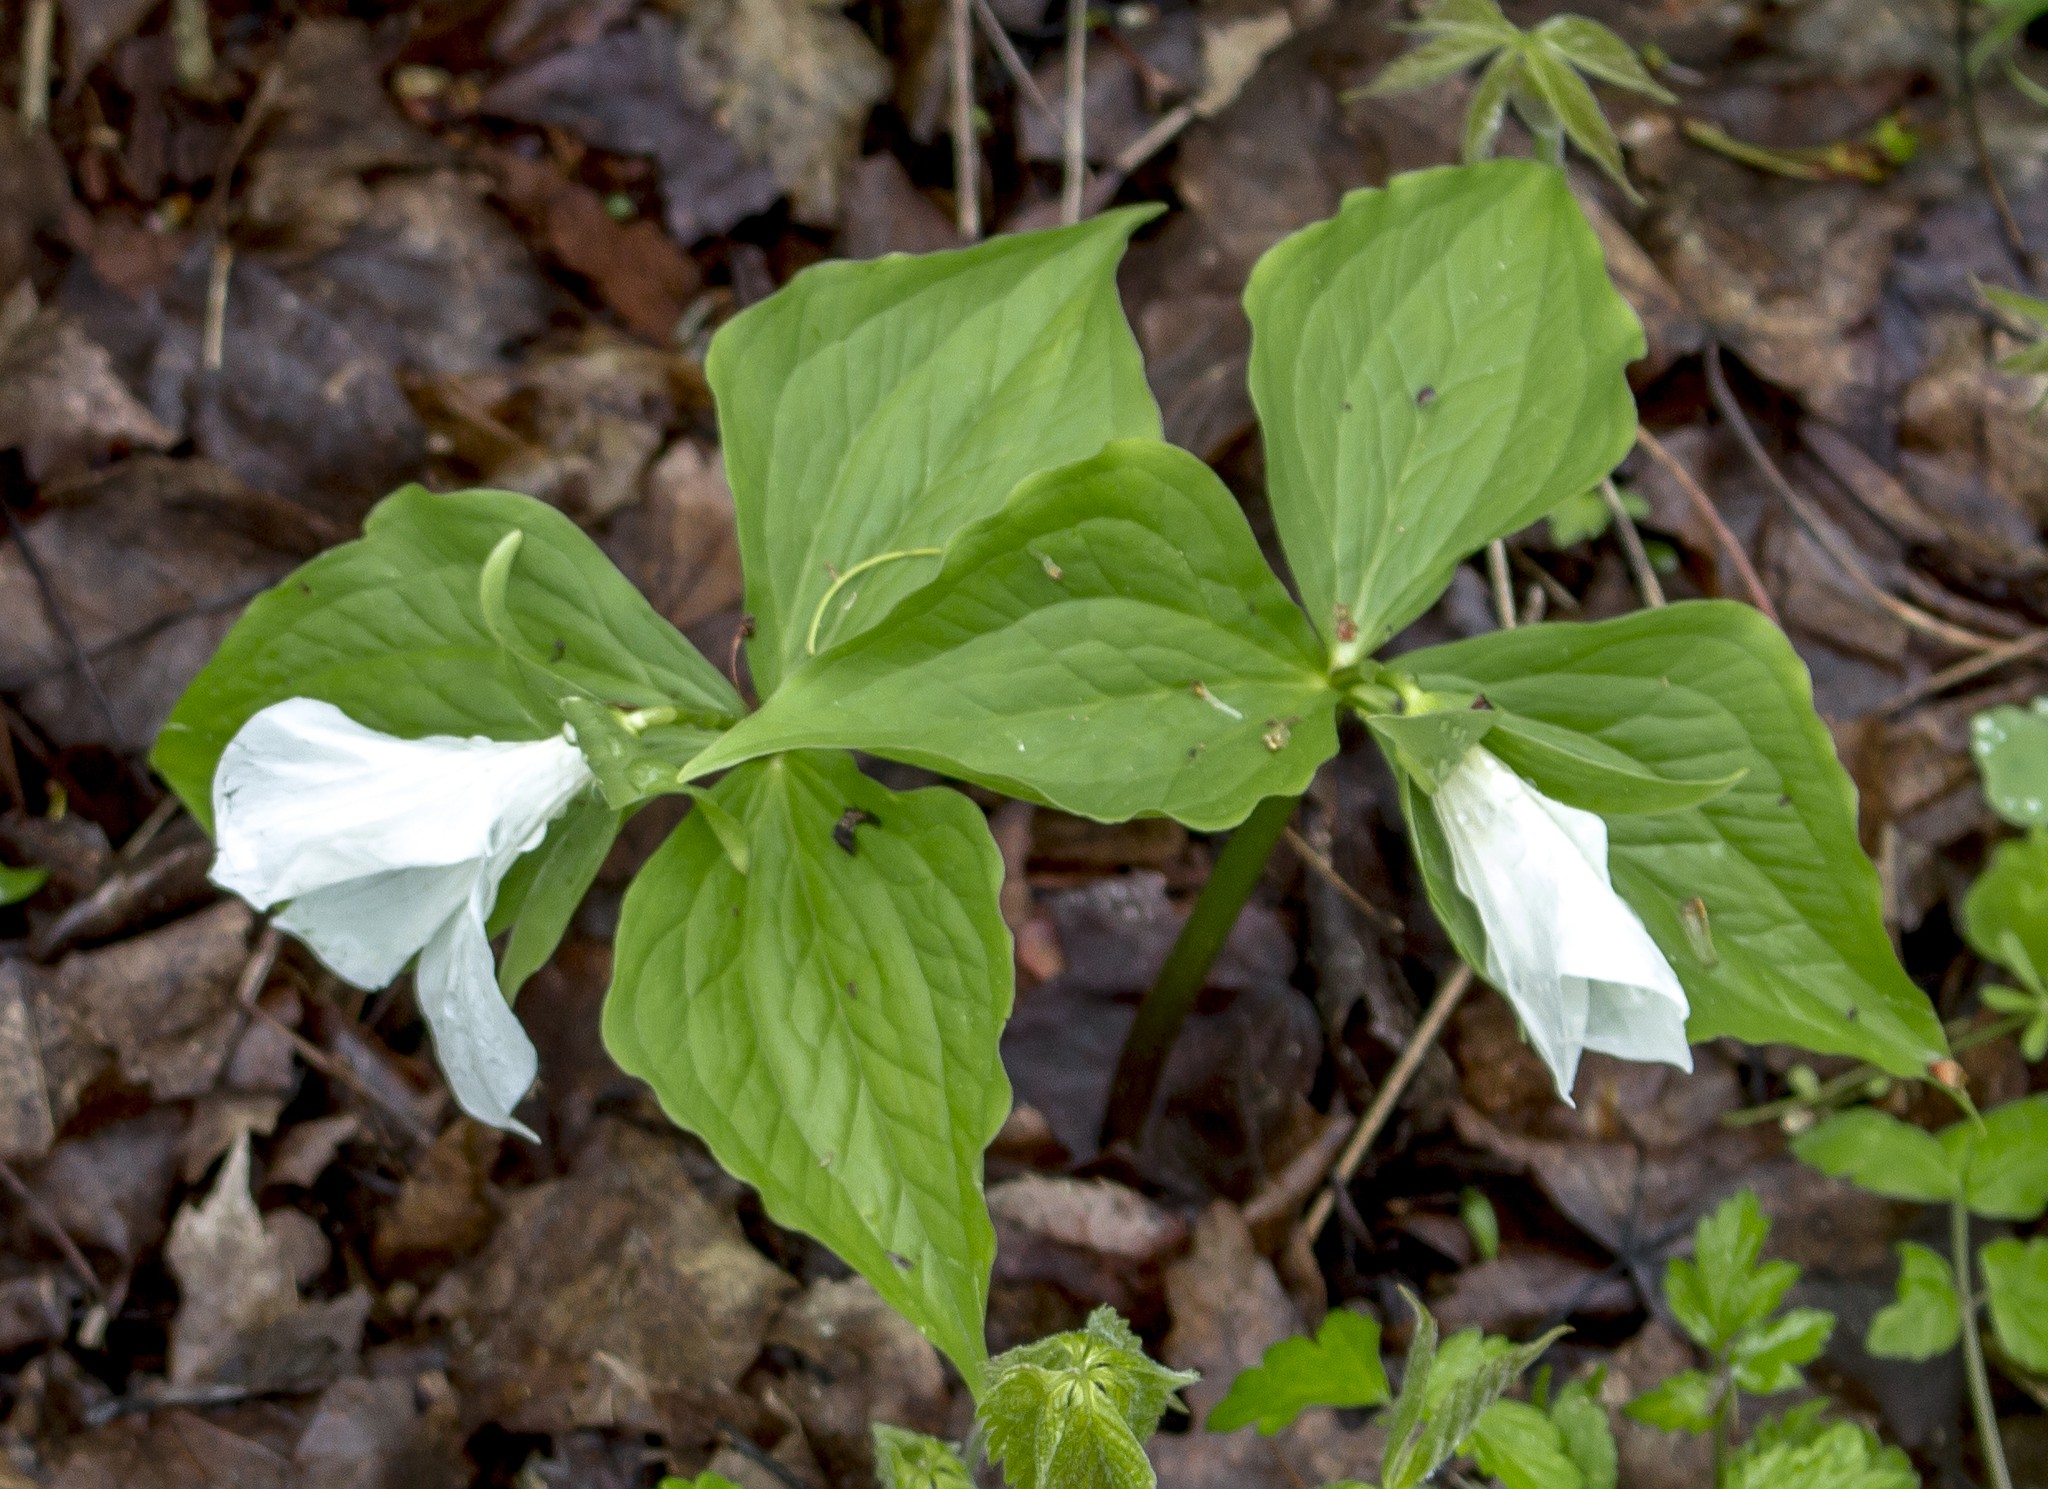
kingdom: Plantae
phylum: Tracheophyta
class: Liliopsida
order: Liliales
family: Melanthiaceae
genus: Trillium
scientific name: Trillium grandiflorum
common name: Great white trillium
